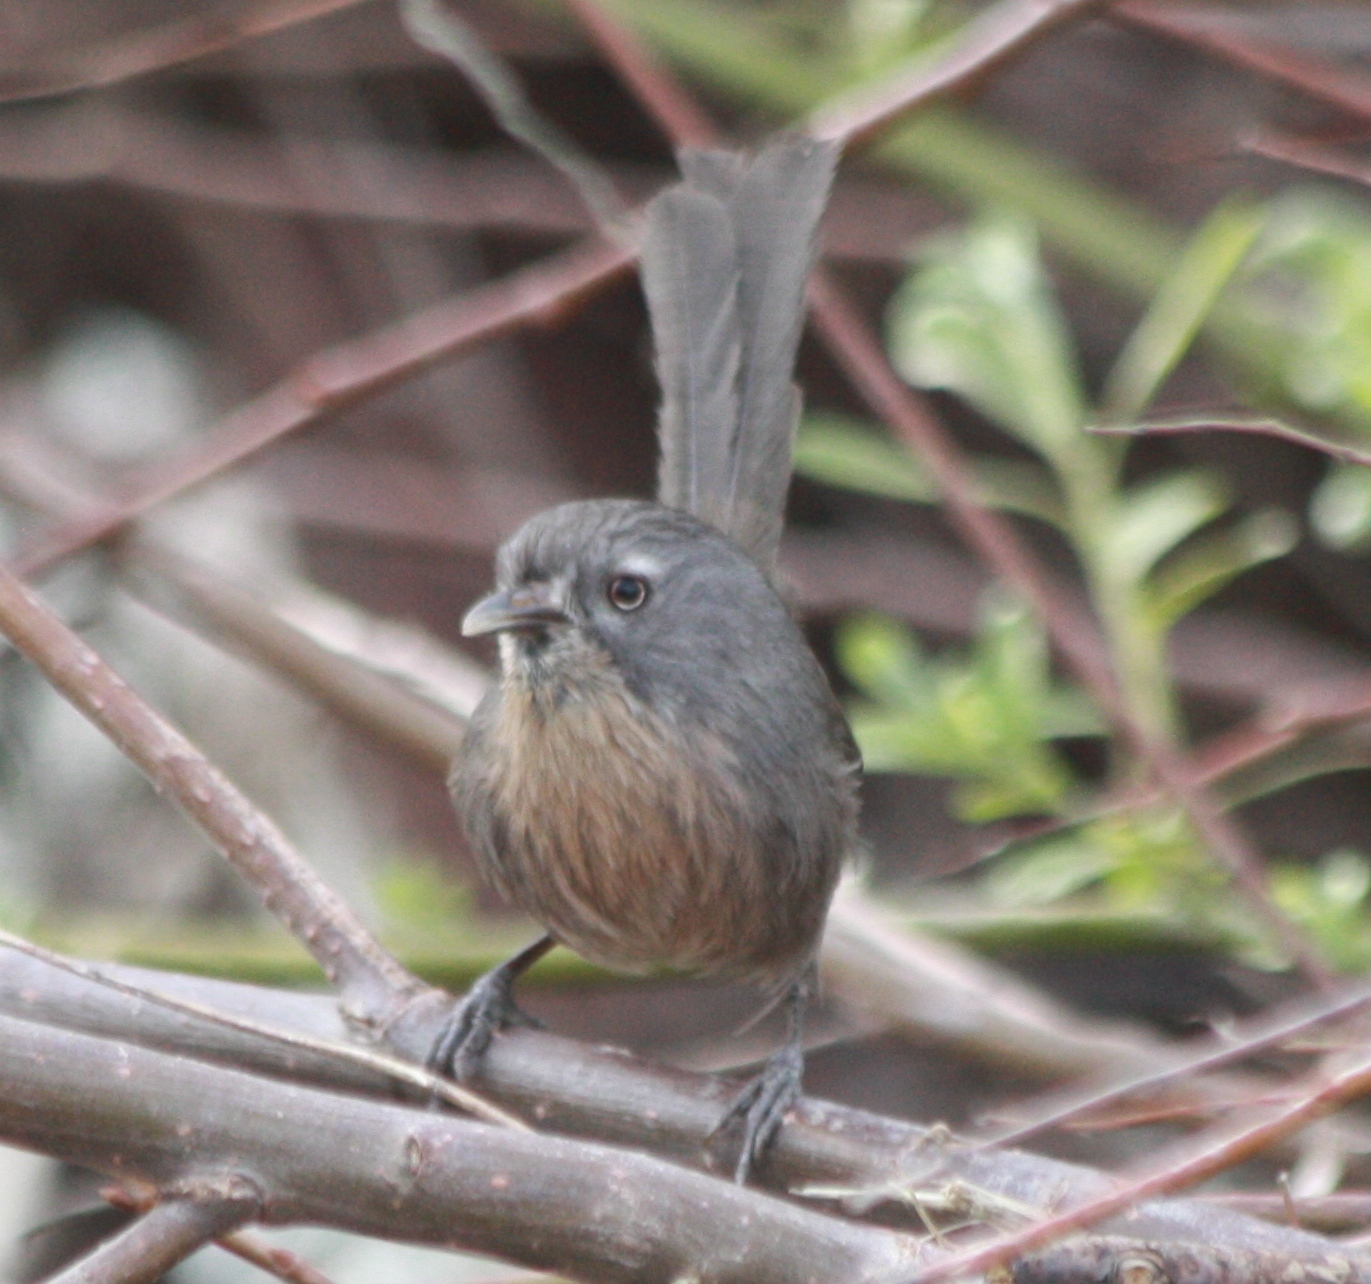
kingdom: Animalia
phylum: Chordata
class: Aves
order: Passeriformes
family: Sylviidae
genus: Chamaea
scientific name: Chamaea fasciata
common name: Wrentit
